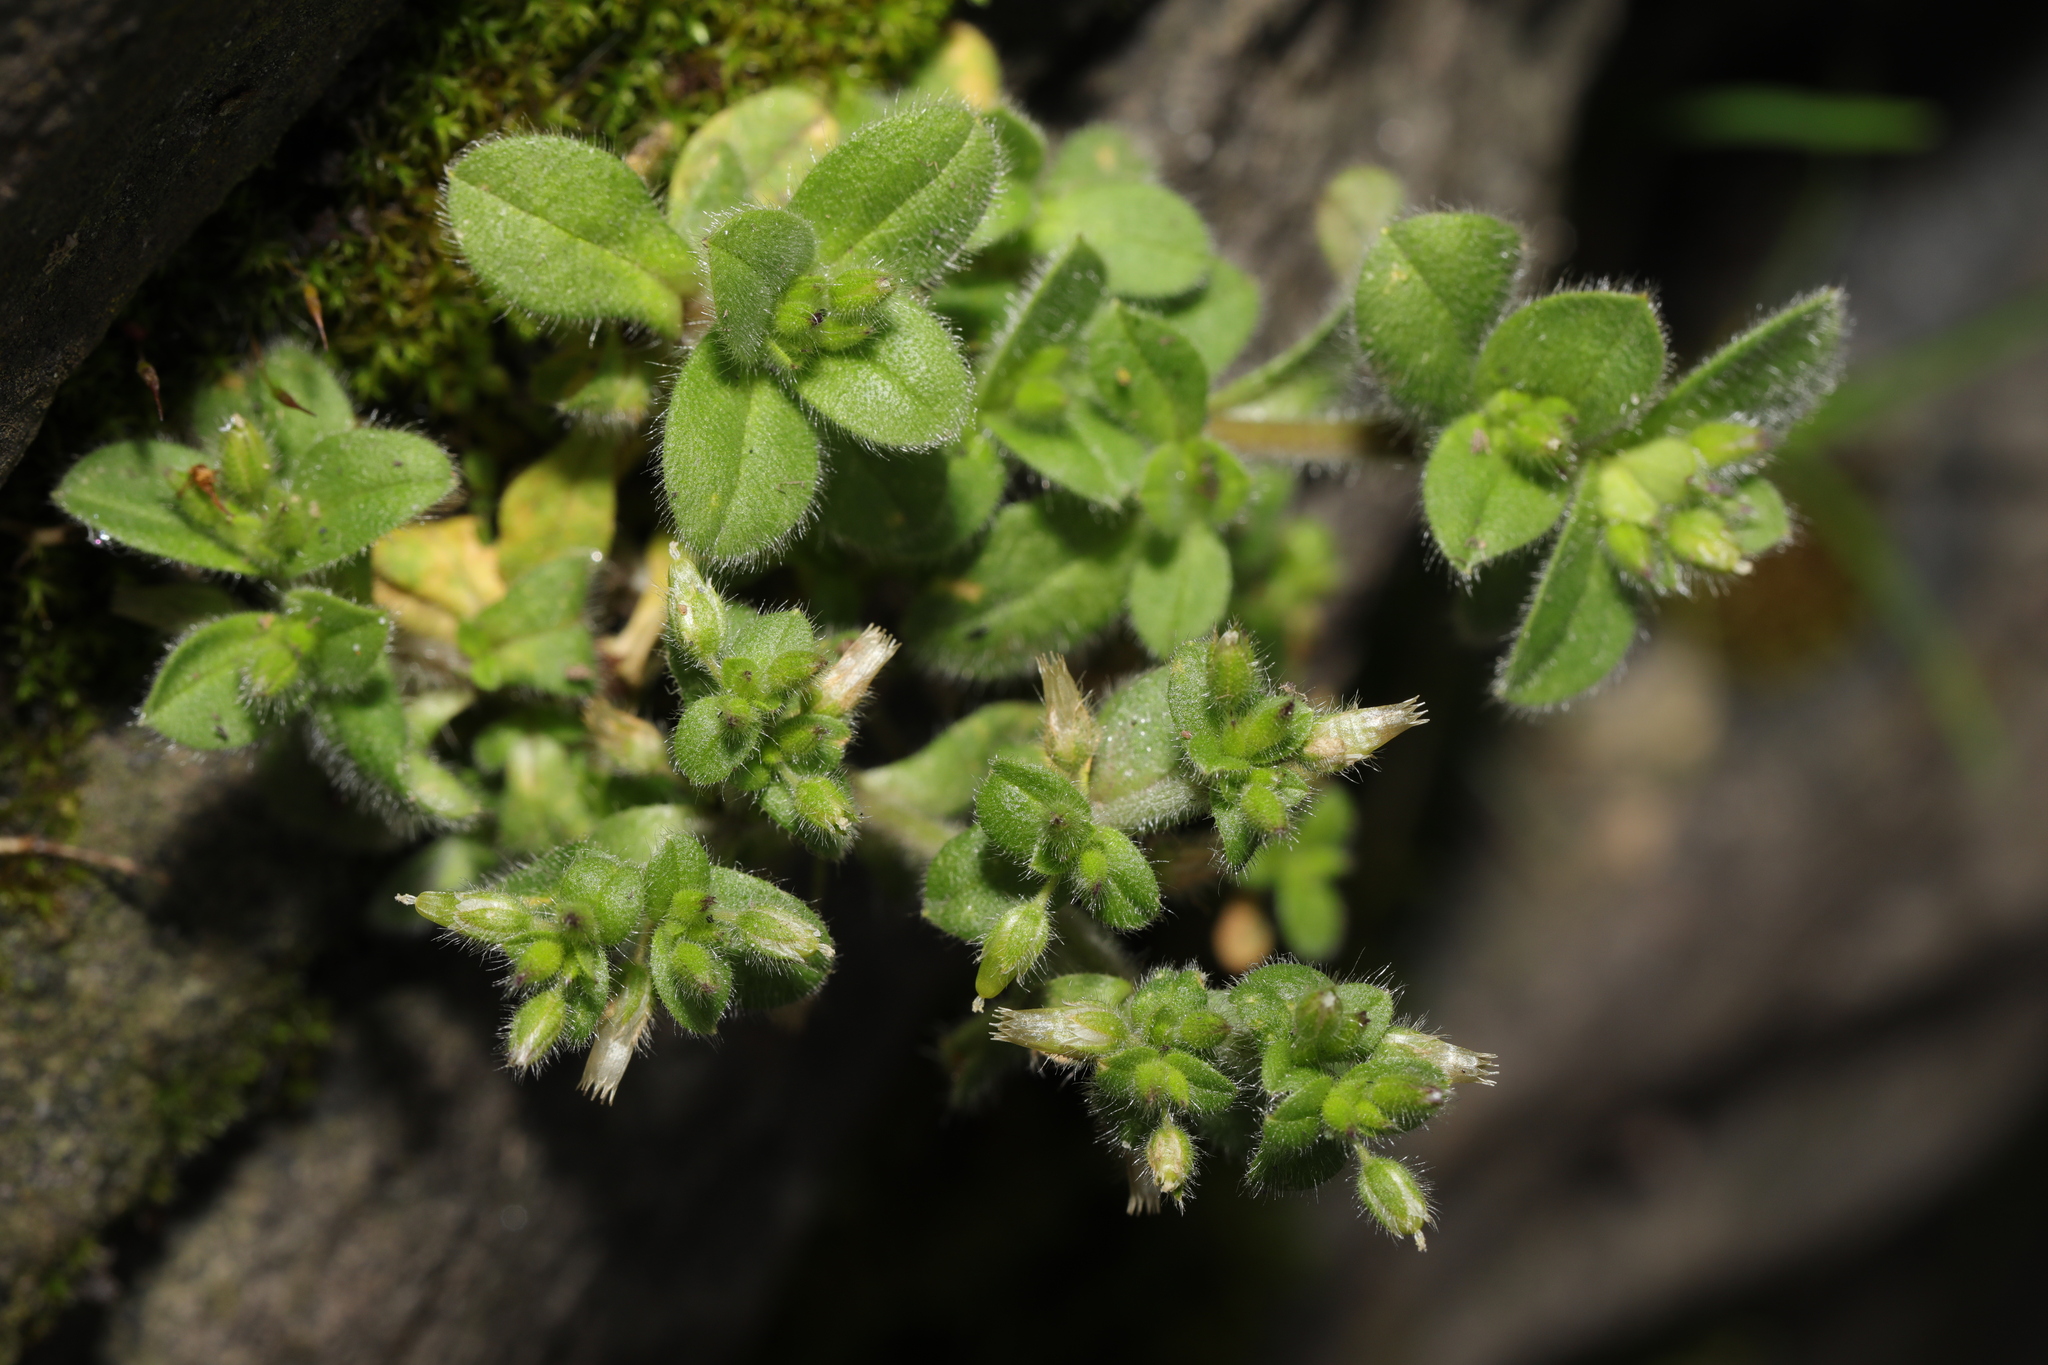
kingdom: Plantae
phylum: Tracheophyta
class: Magnoliopsida
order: Caryophyllales
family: Caryophyllaceae
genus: Cerastium
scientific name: Cerastium glomeratum
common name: Sticky chickweed
